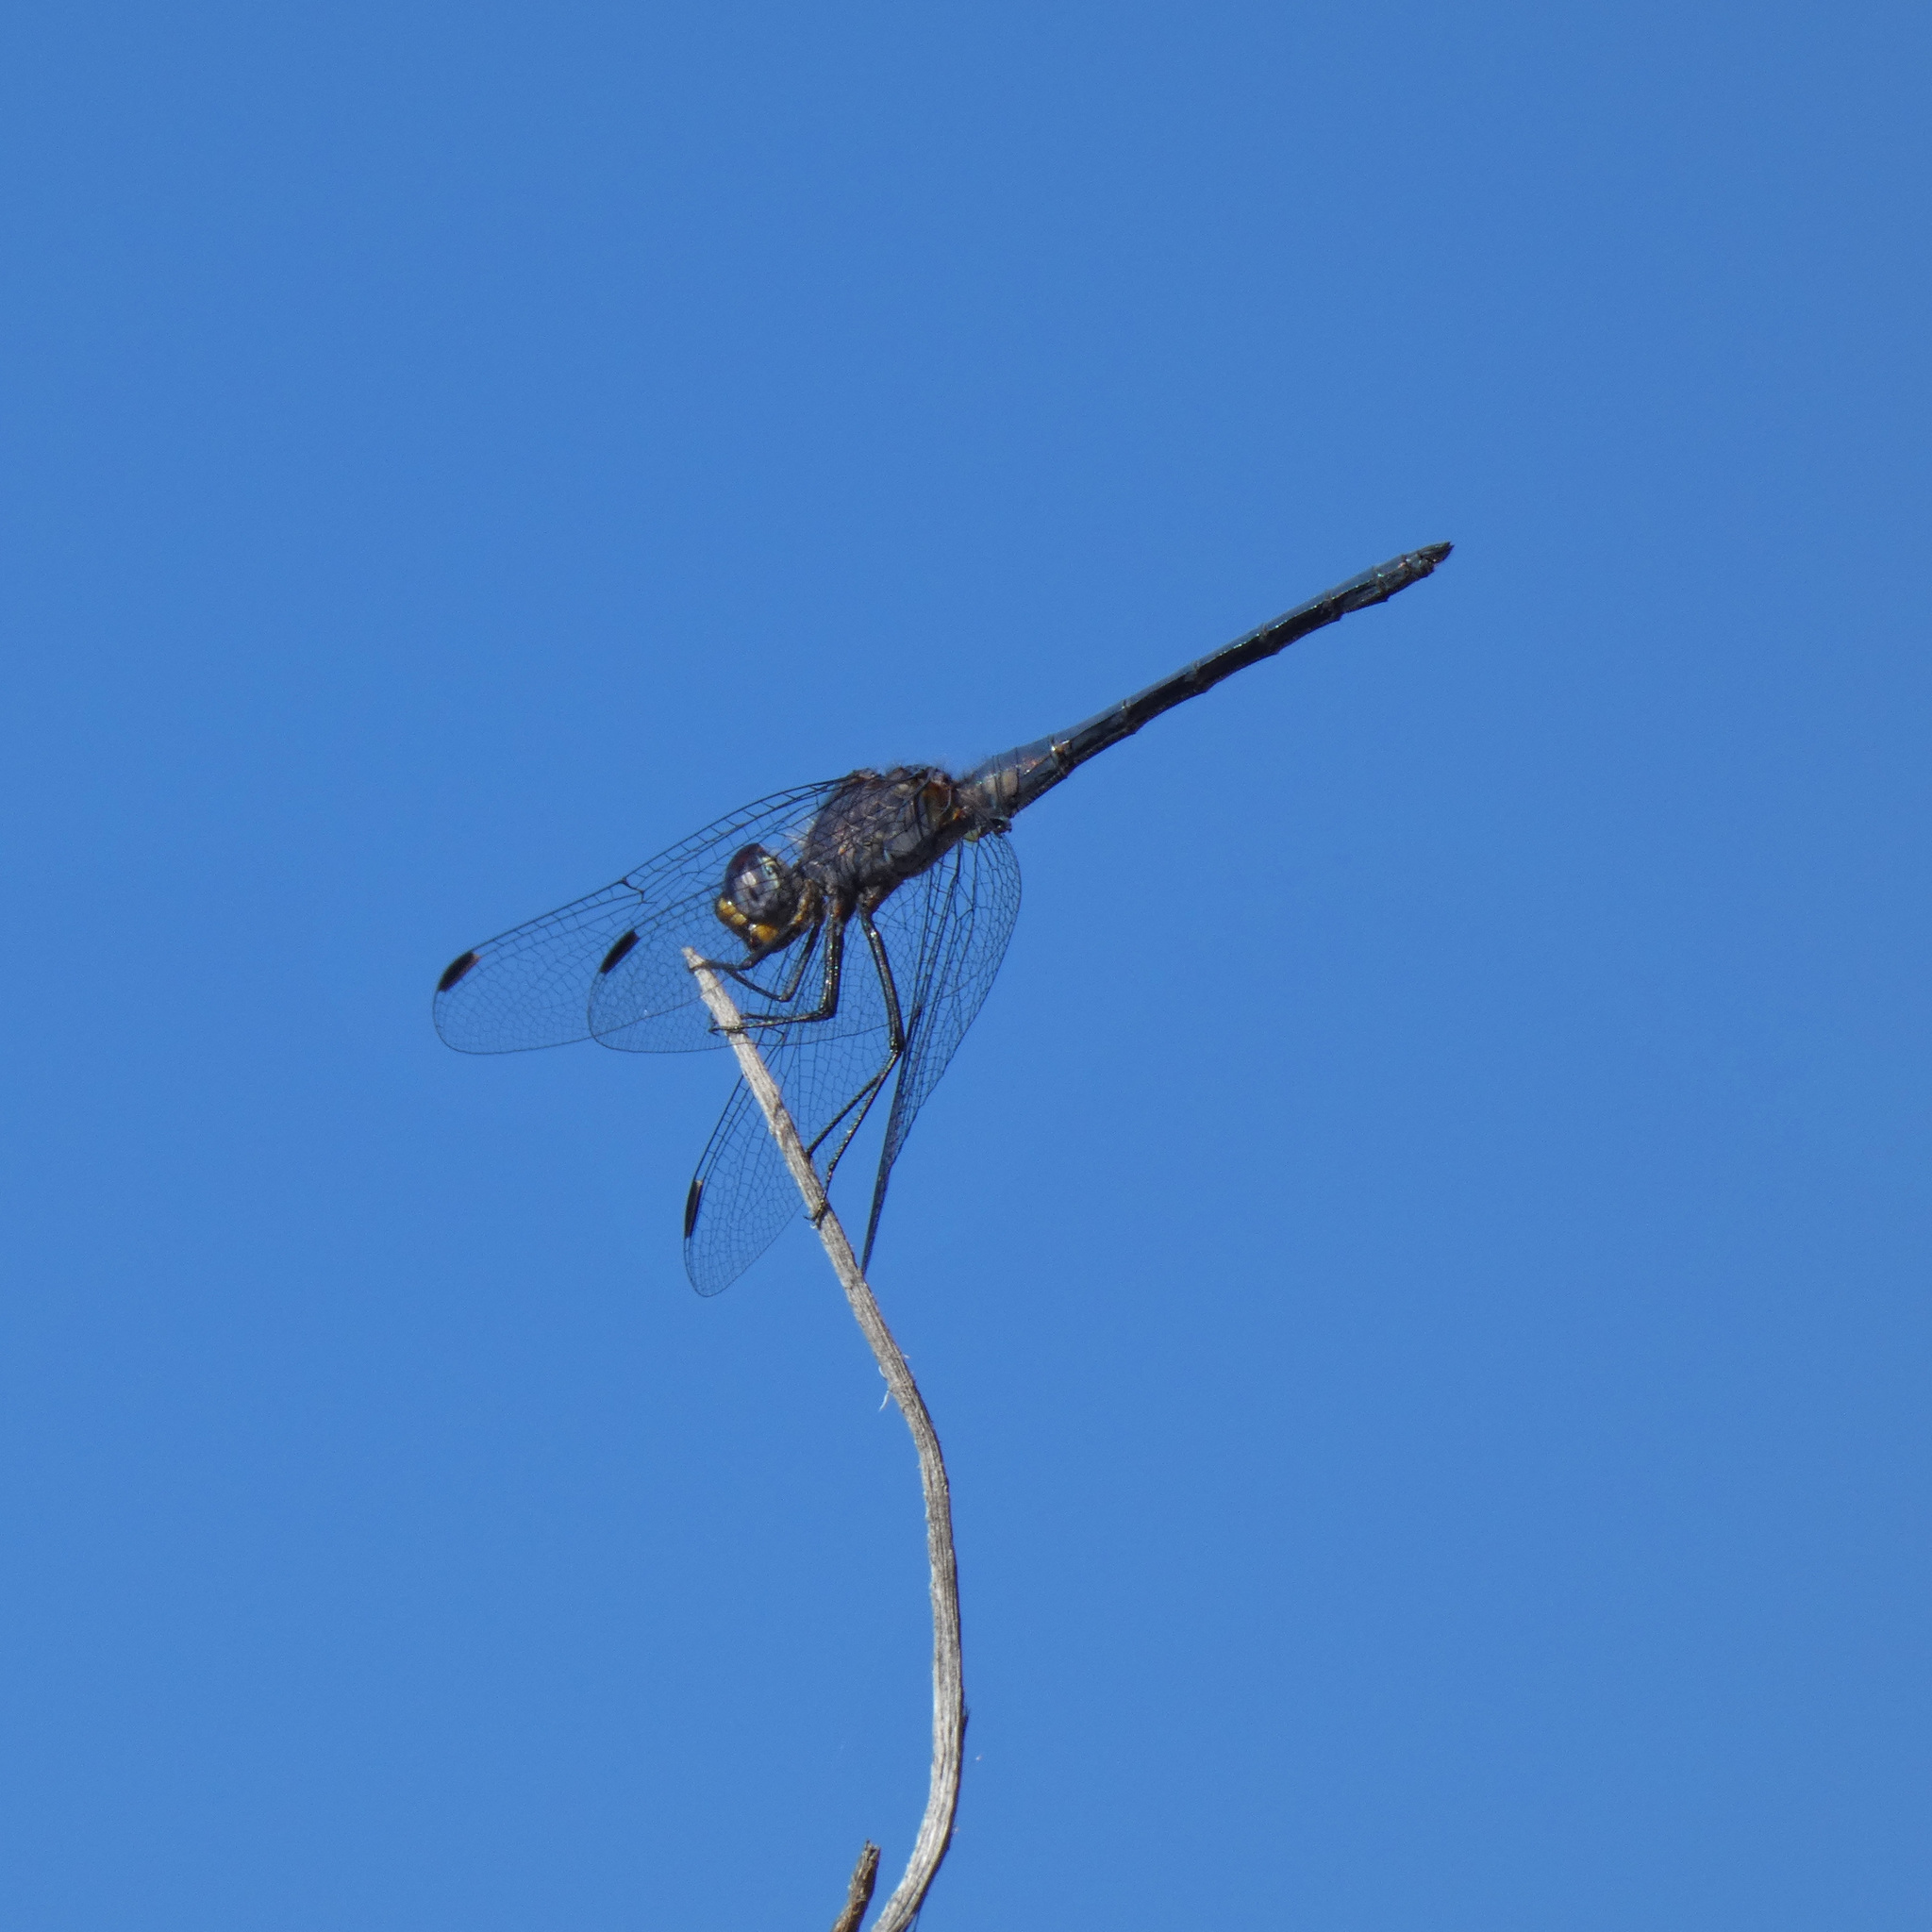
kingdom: Animalia
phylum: Arthropoda
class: Insecta
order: Odonata
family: Libellulidae
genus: Trithemis
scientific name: Trithemis furva
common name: Dark dropwing
